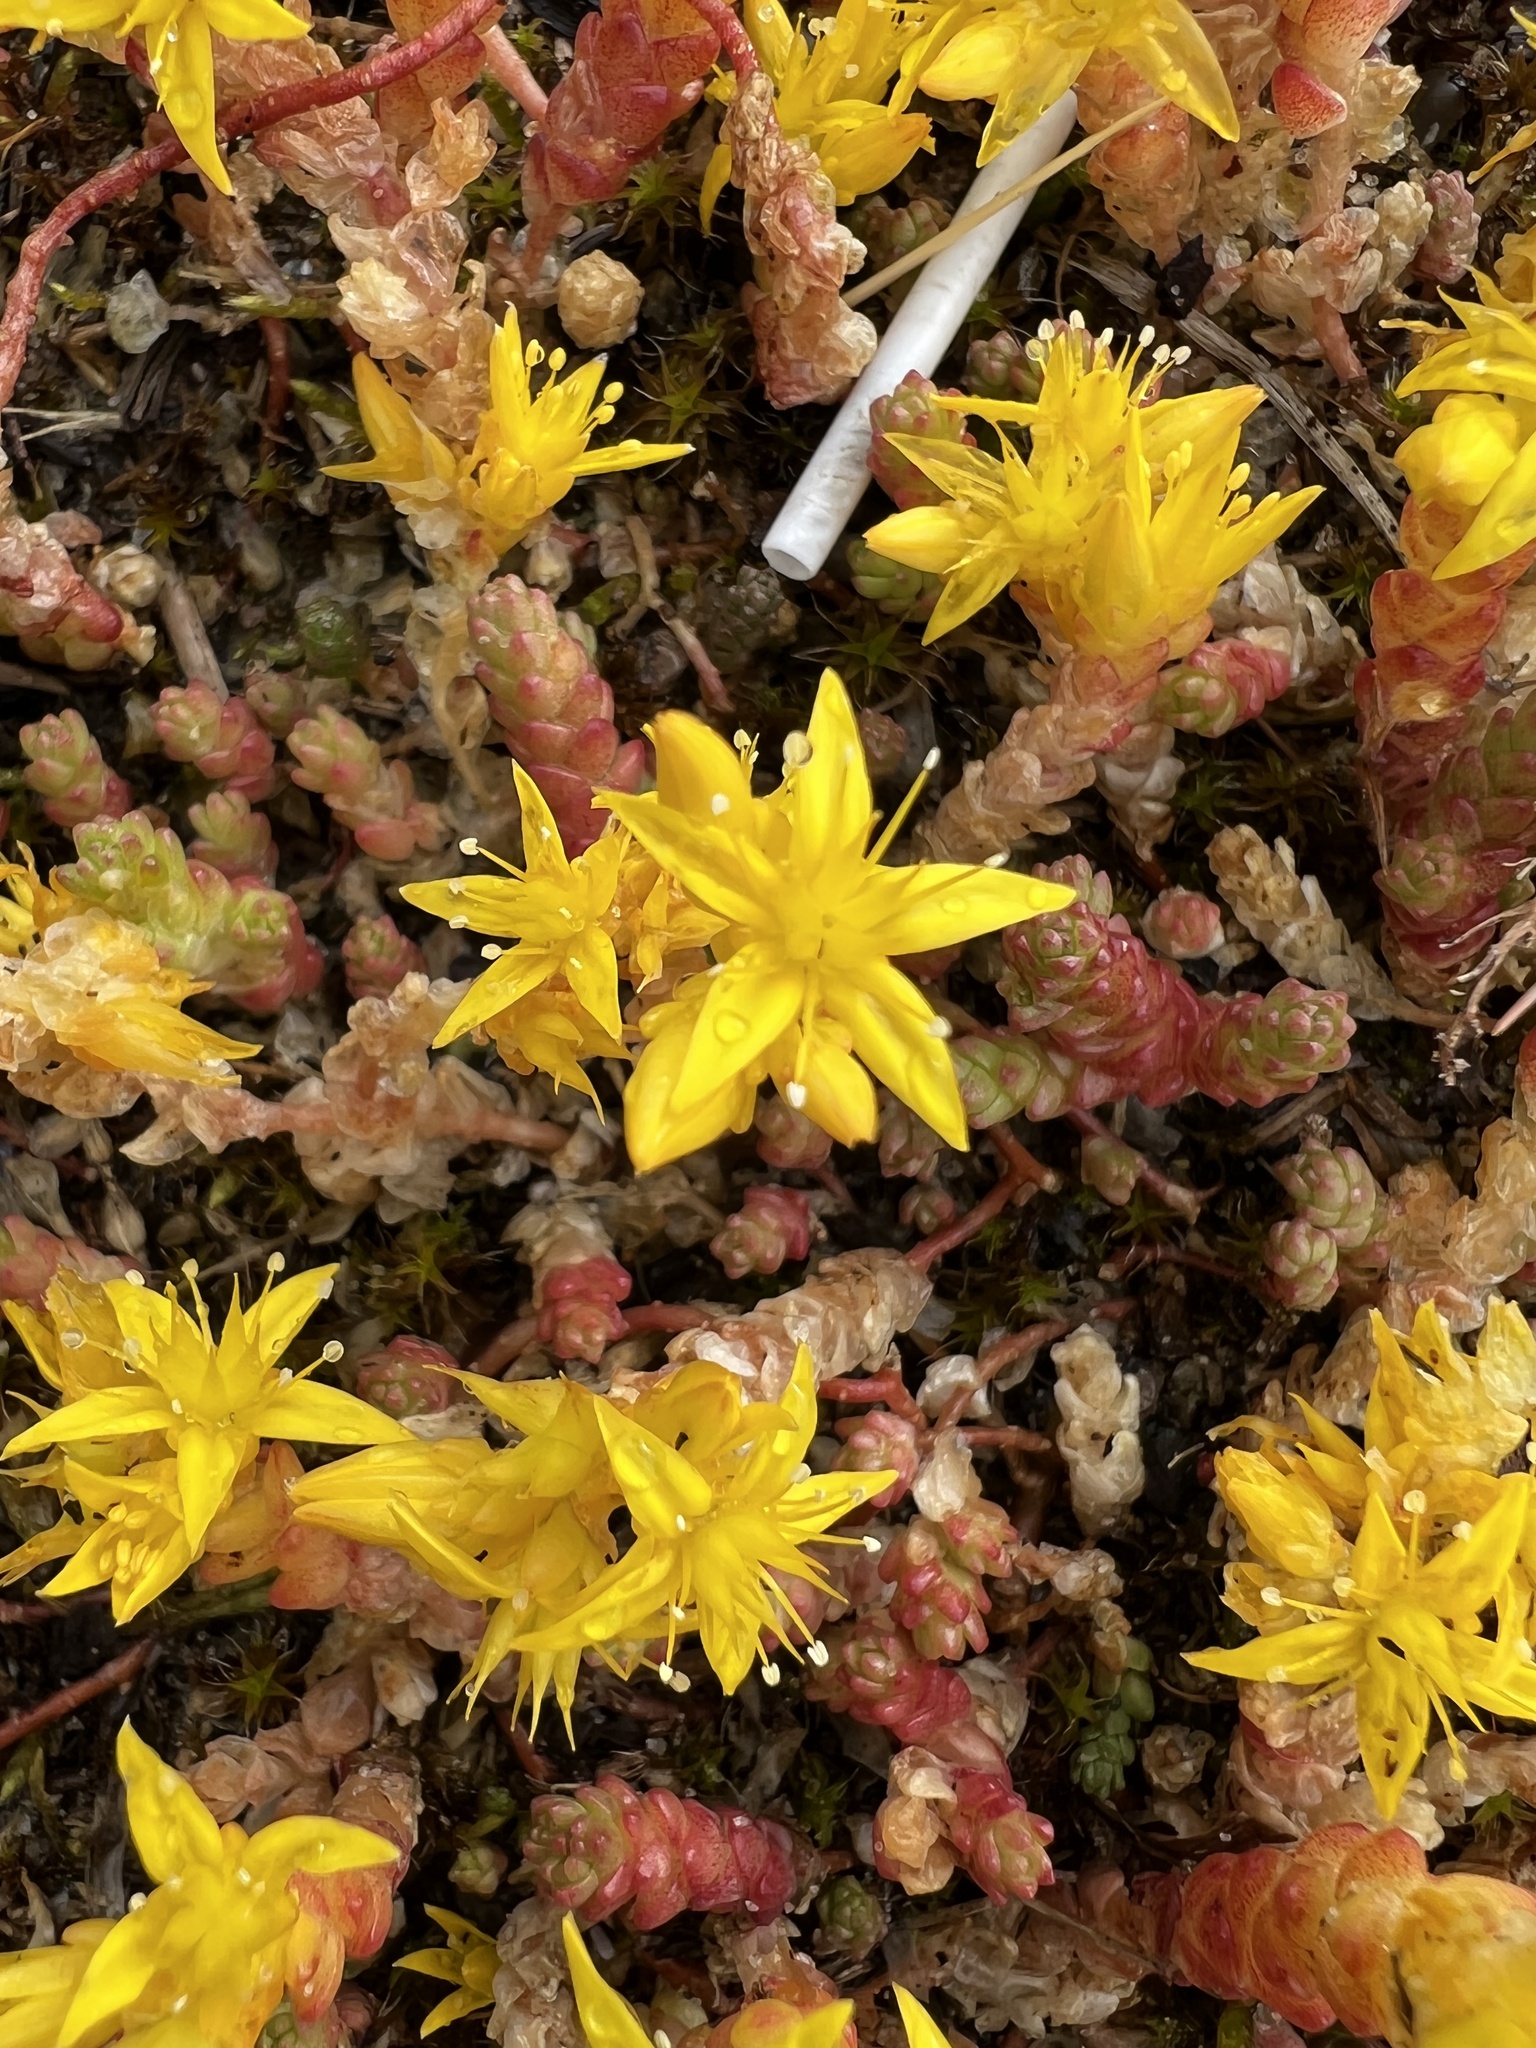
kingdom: Plantae
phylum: Tracheophyta
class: Magnoliopsida
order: Saxifragales
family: Crassulaceae
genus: Sedum
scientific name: Sedum acre
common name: Biting stonecrop
